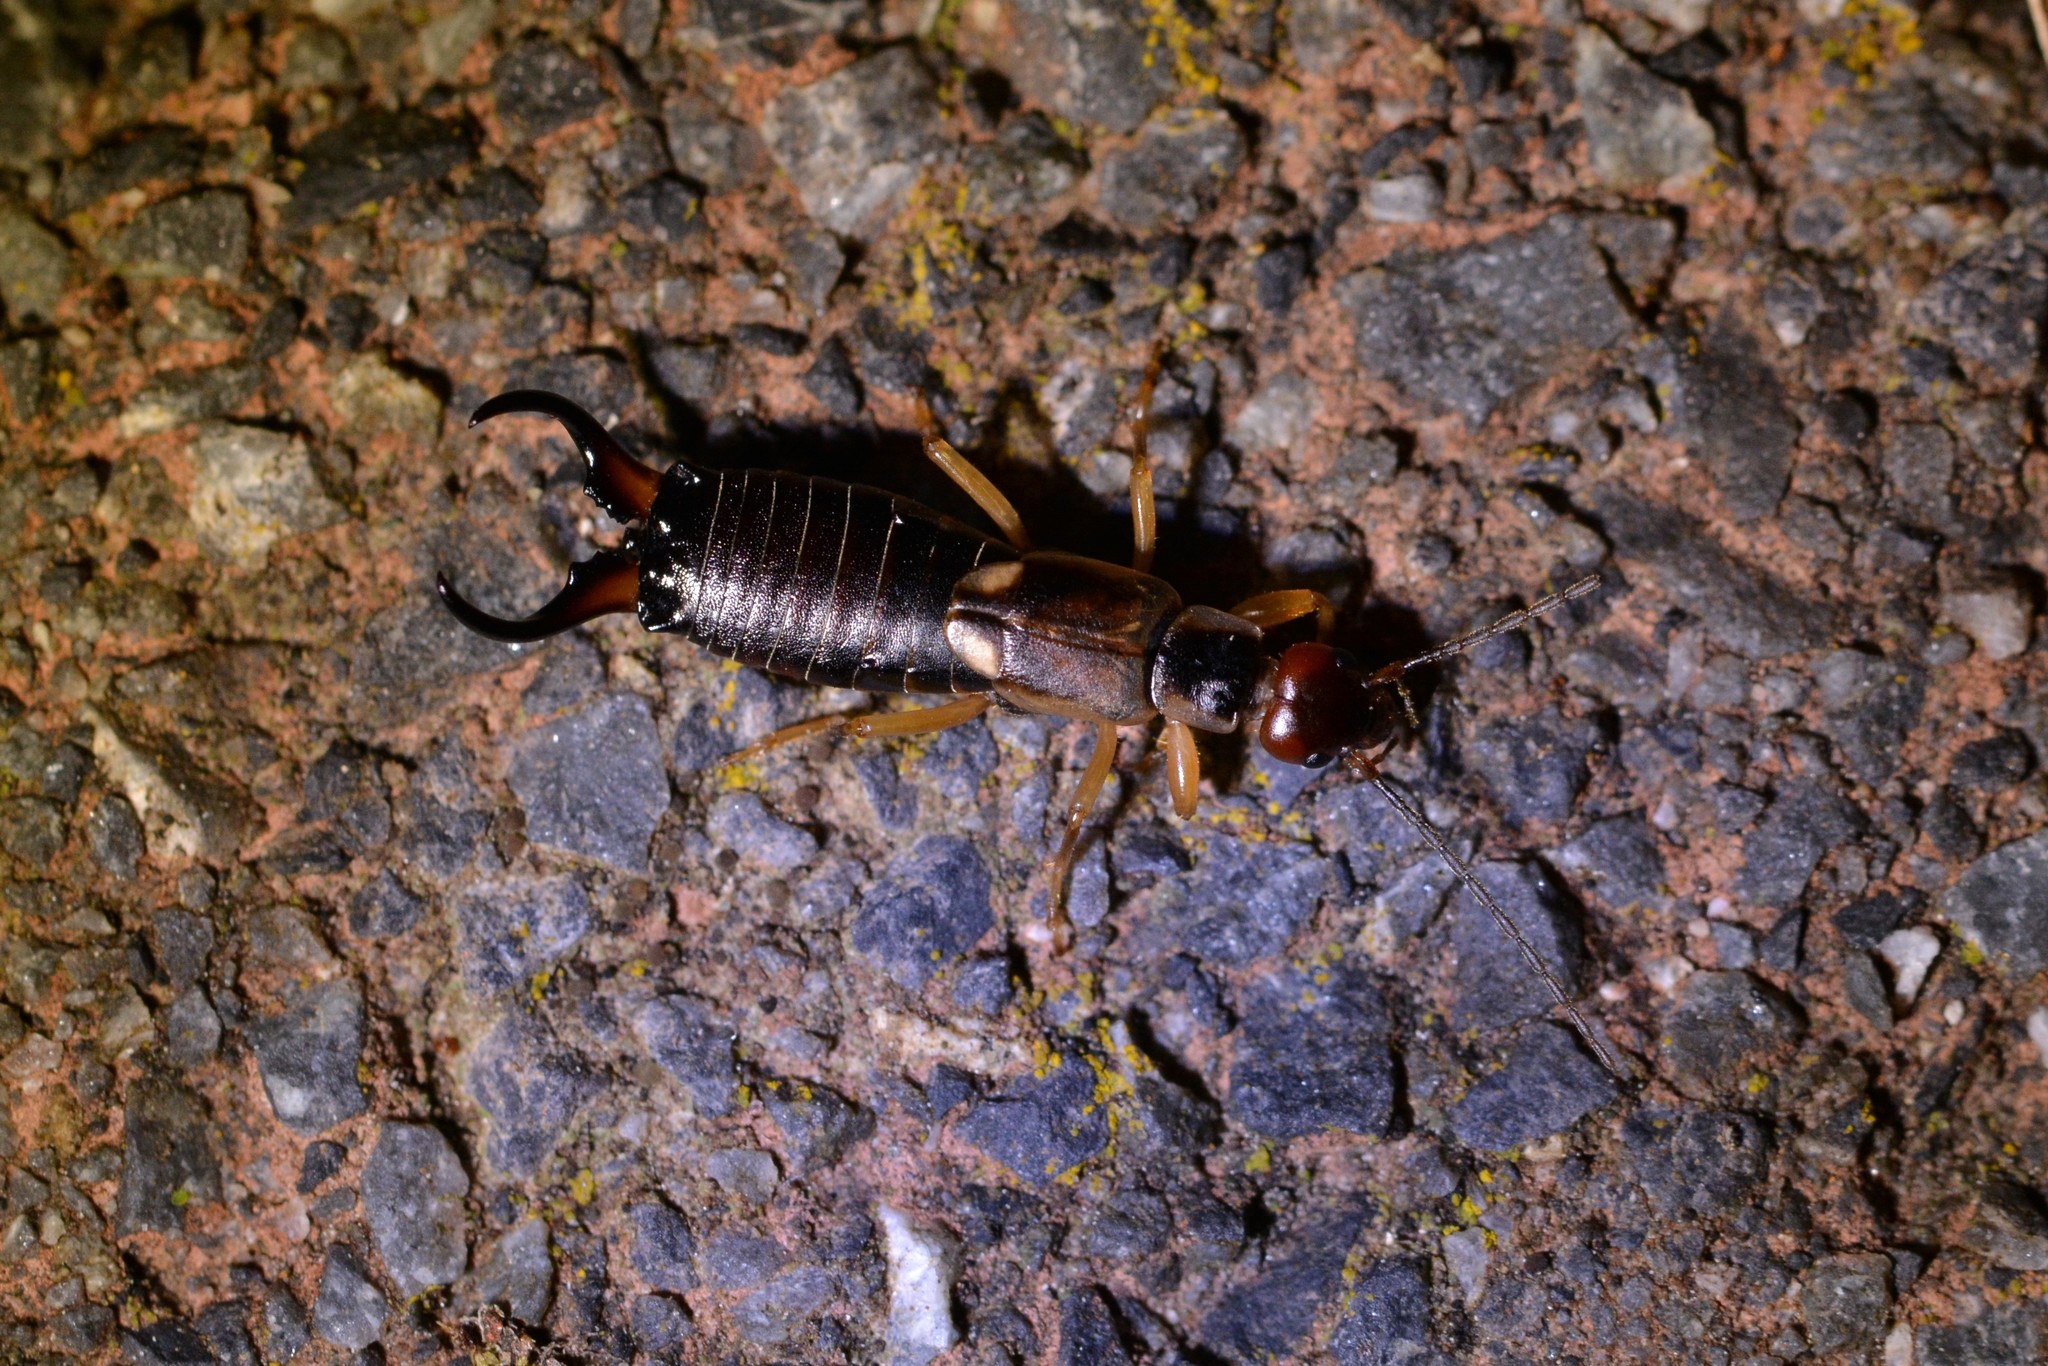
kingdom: Animalia
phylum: Arthropoda
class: Insecta
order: Dermaptera
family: Forficulidae
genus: Forficula
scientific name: Forficula
